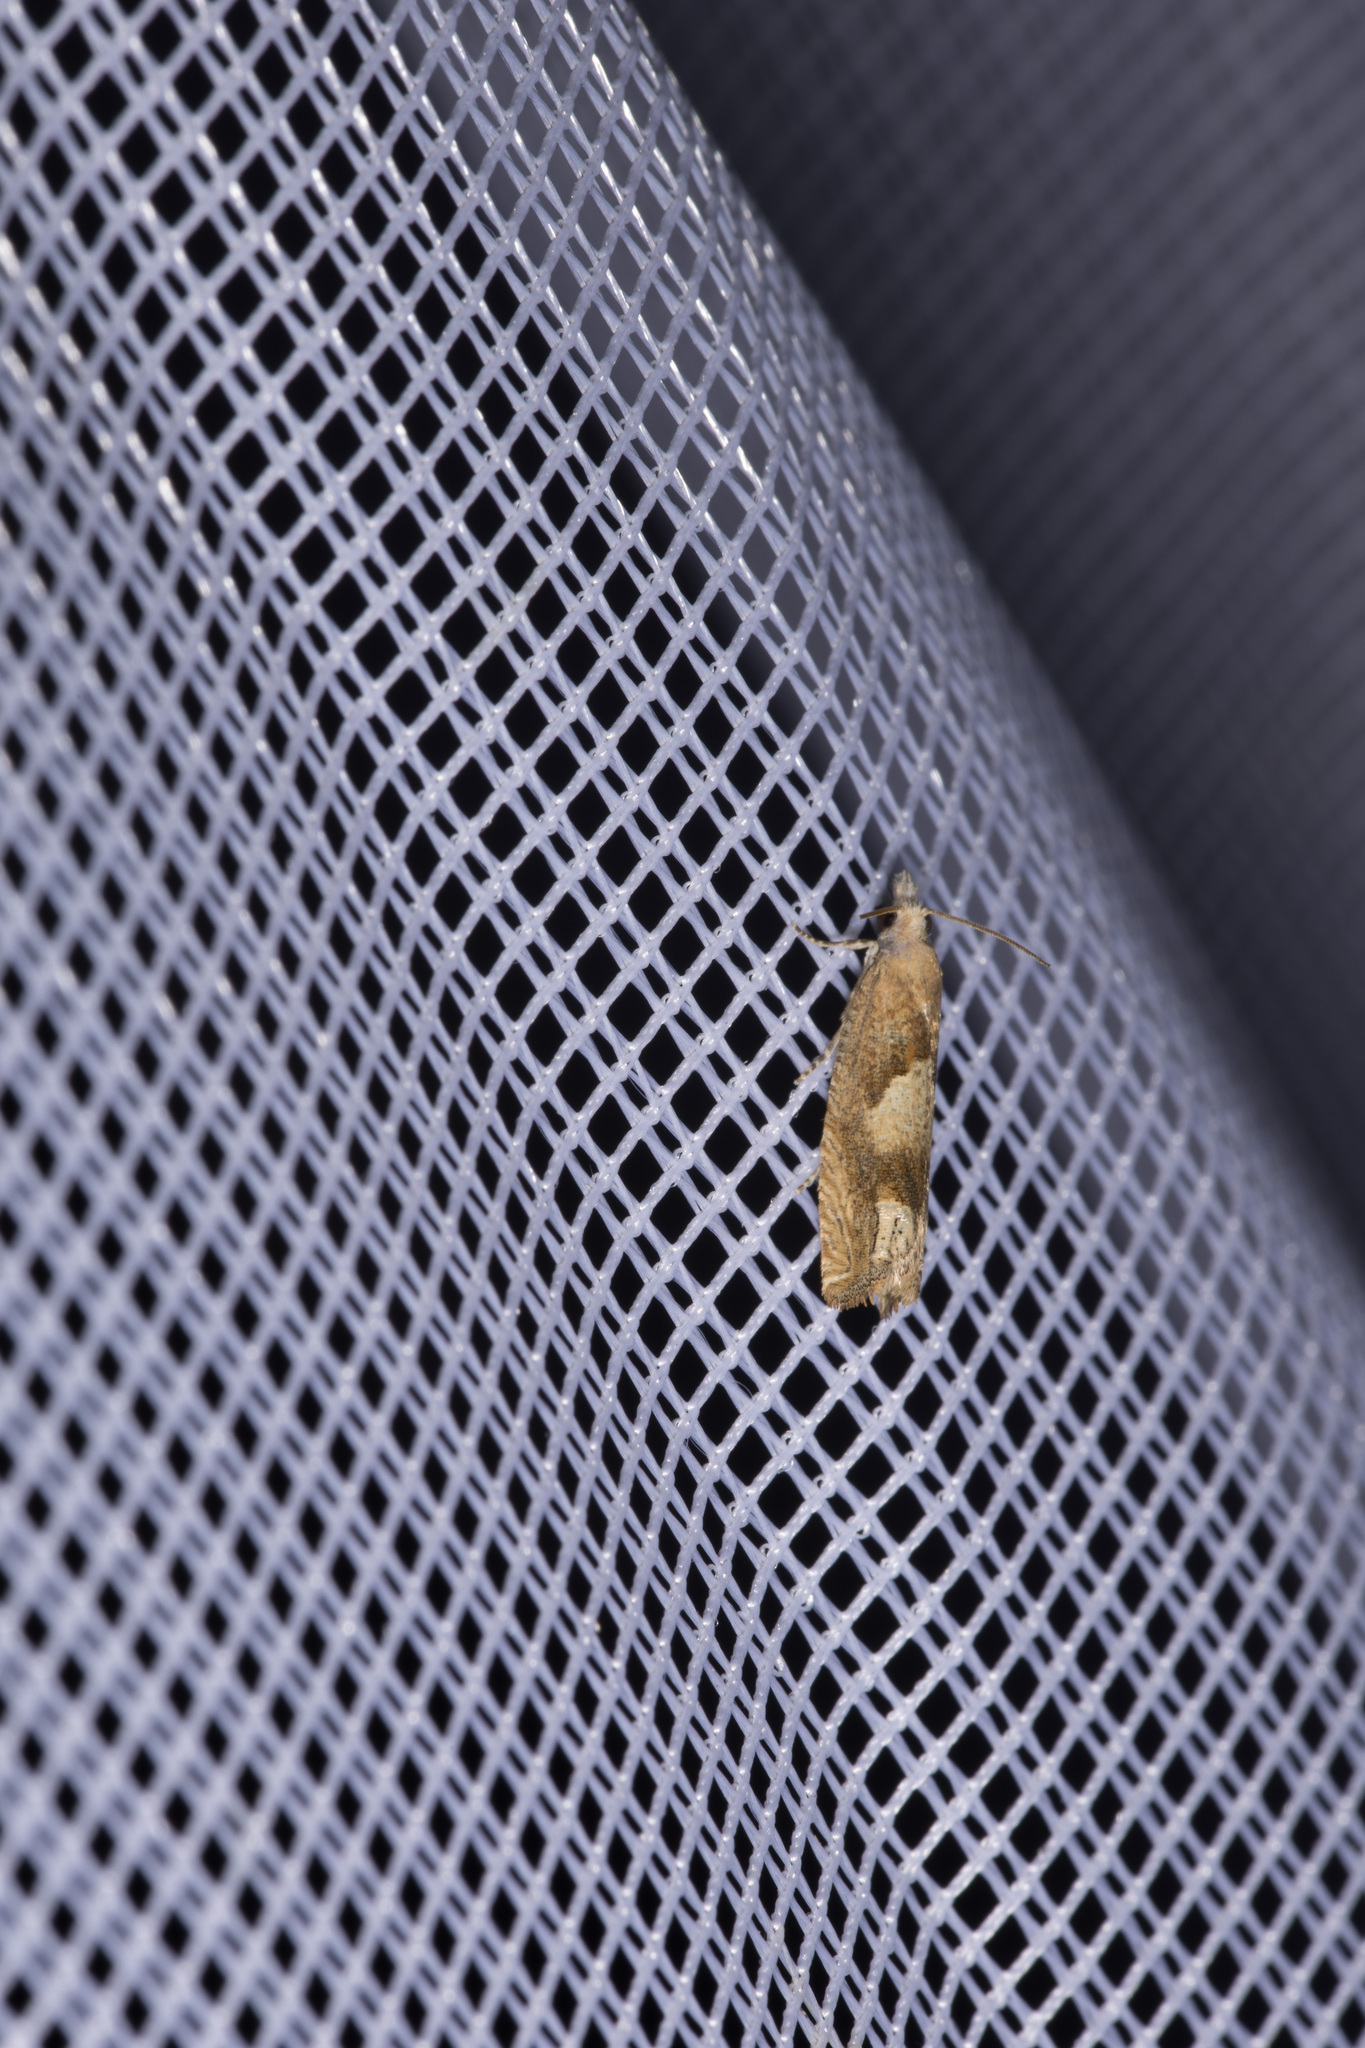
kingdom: Animalia
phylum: Arthropoda
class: Insecta
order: Lepidoptera
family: Tortricidae
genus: Eucosma
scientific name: Eucosma conterminana
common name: Pale lettuce bell
